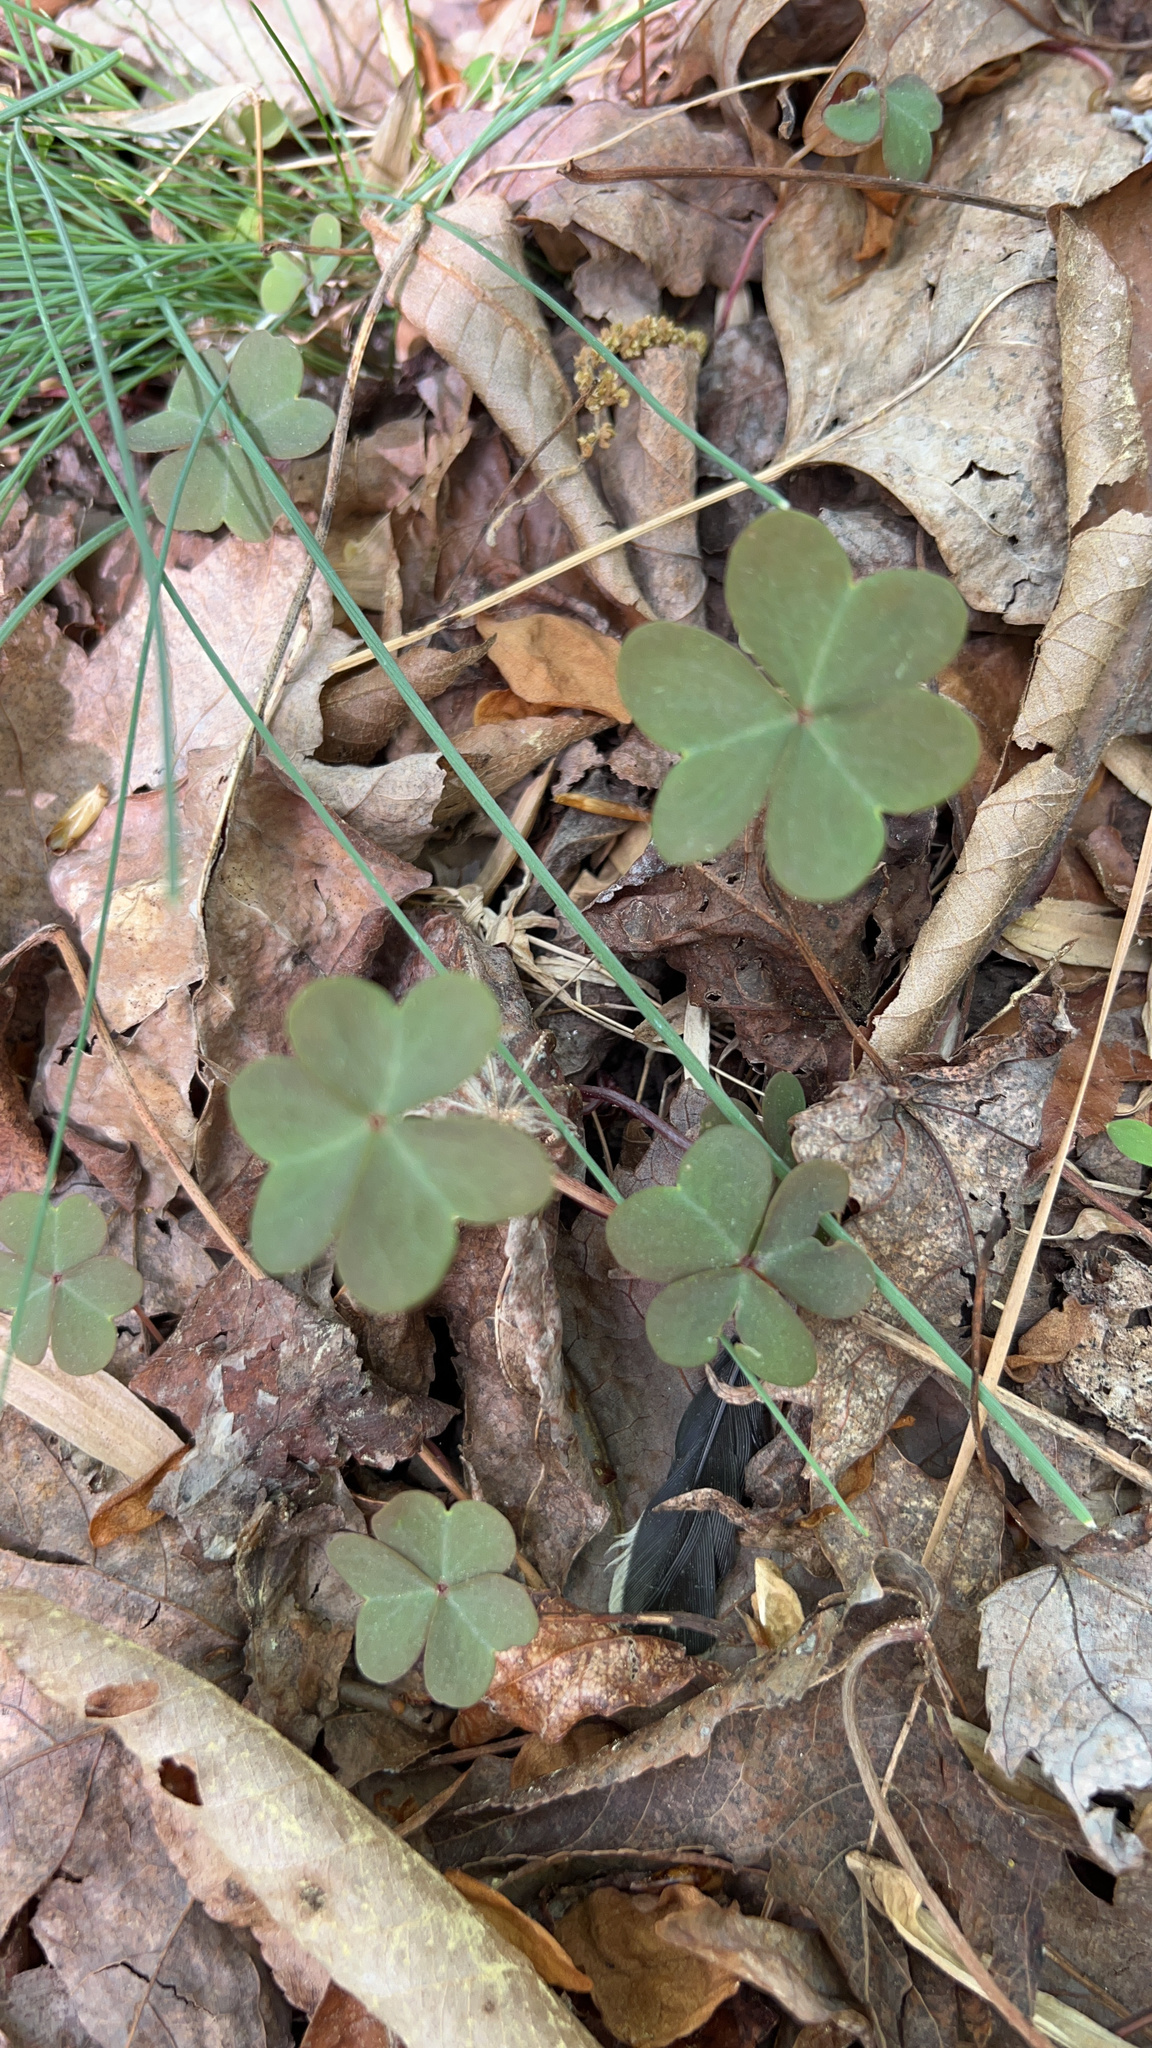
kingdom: Plantae
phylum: Tracheophyta
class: Magnoliopsida
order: Oxalidales
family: Oxalidaceae
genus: Oxalis
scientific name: Oxalis violacea
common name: Violet wood-sorrel
